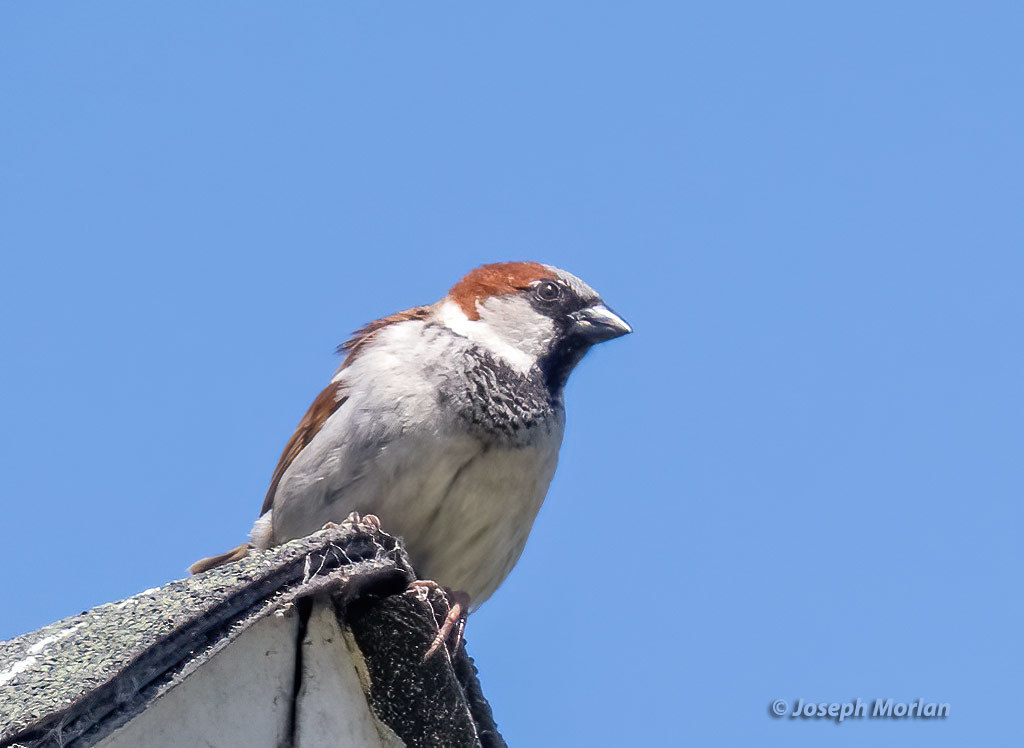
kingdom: Animalia
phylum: Chordata
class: Aves
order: Passeriformes
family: Passeridae
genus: Passer
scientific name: Passer domesticus
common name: House sparrow
